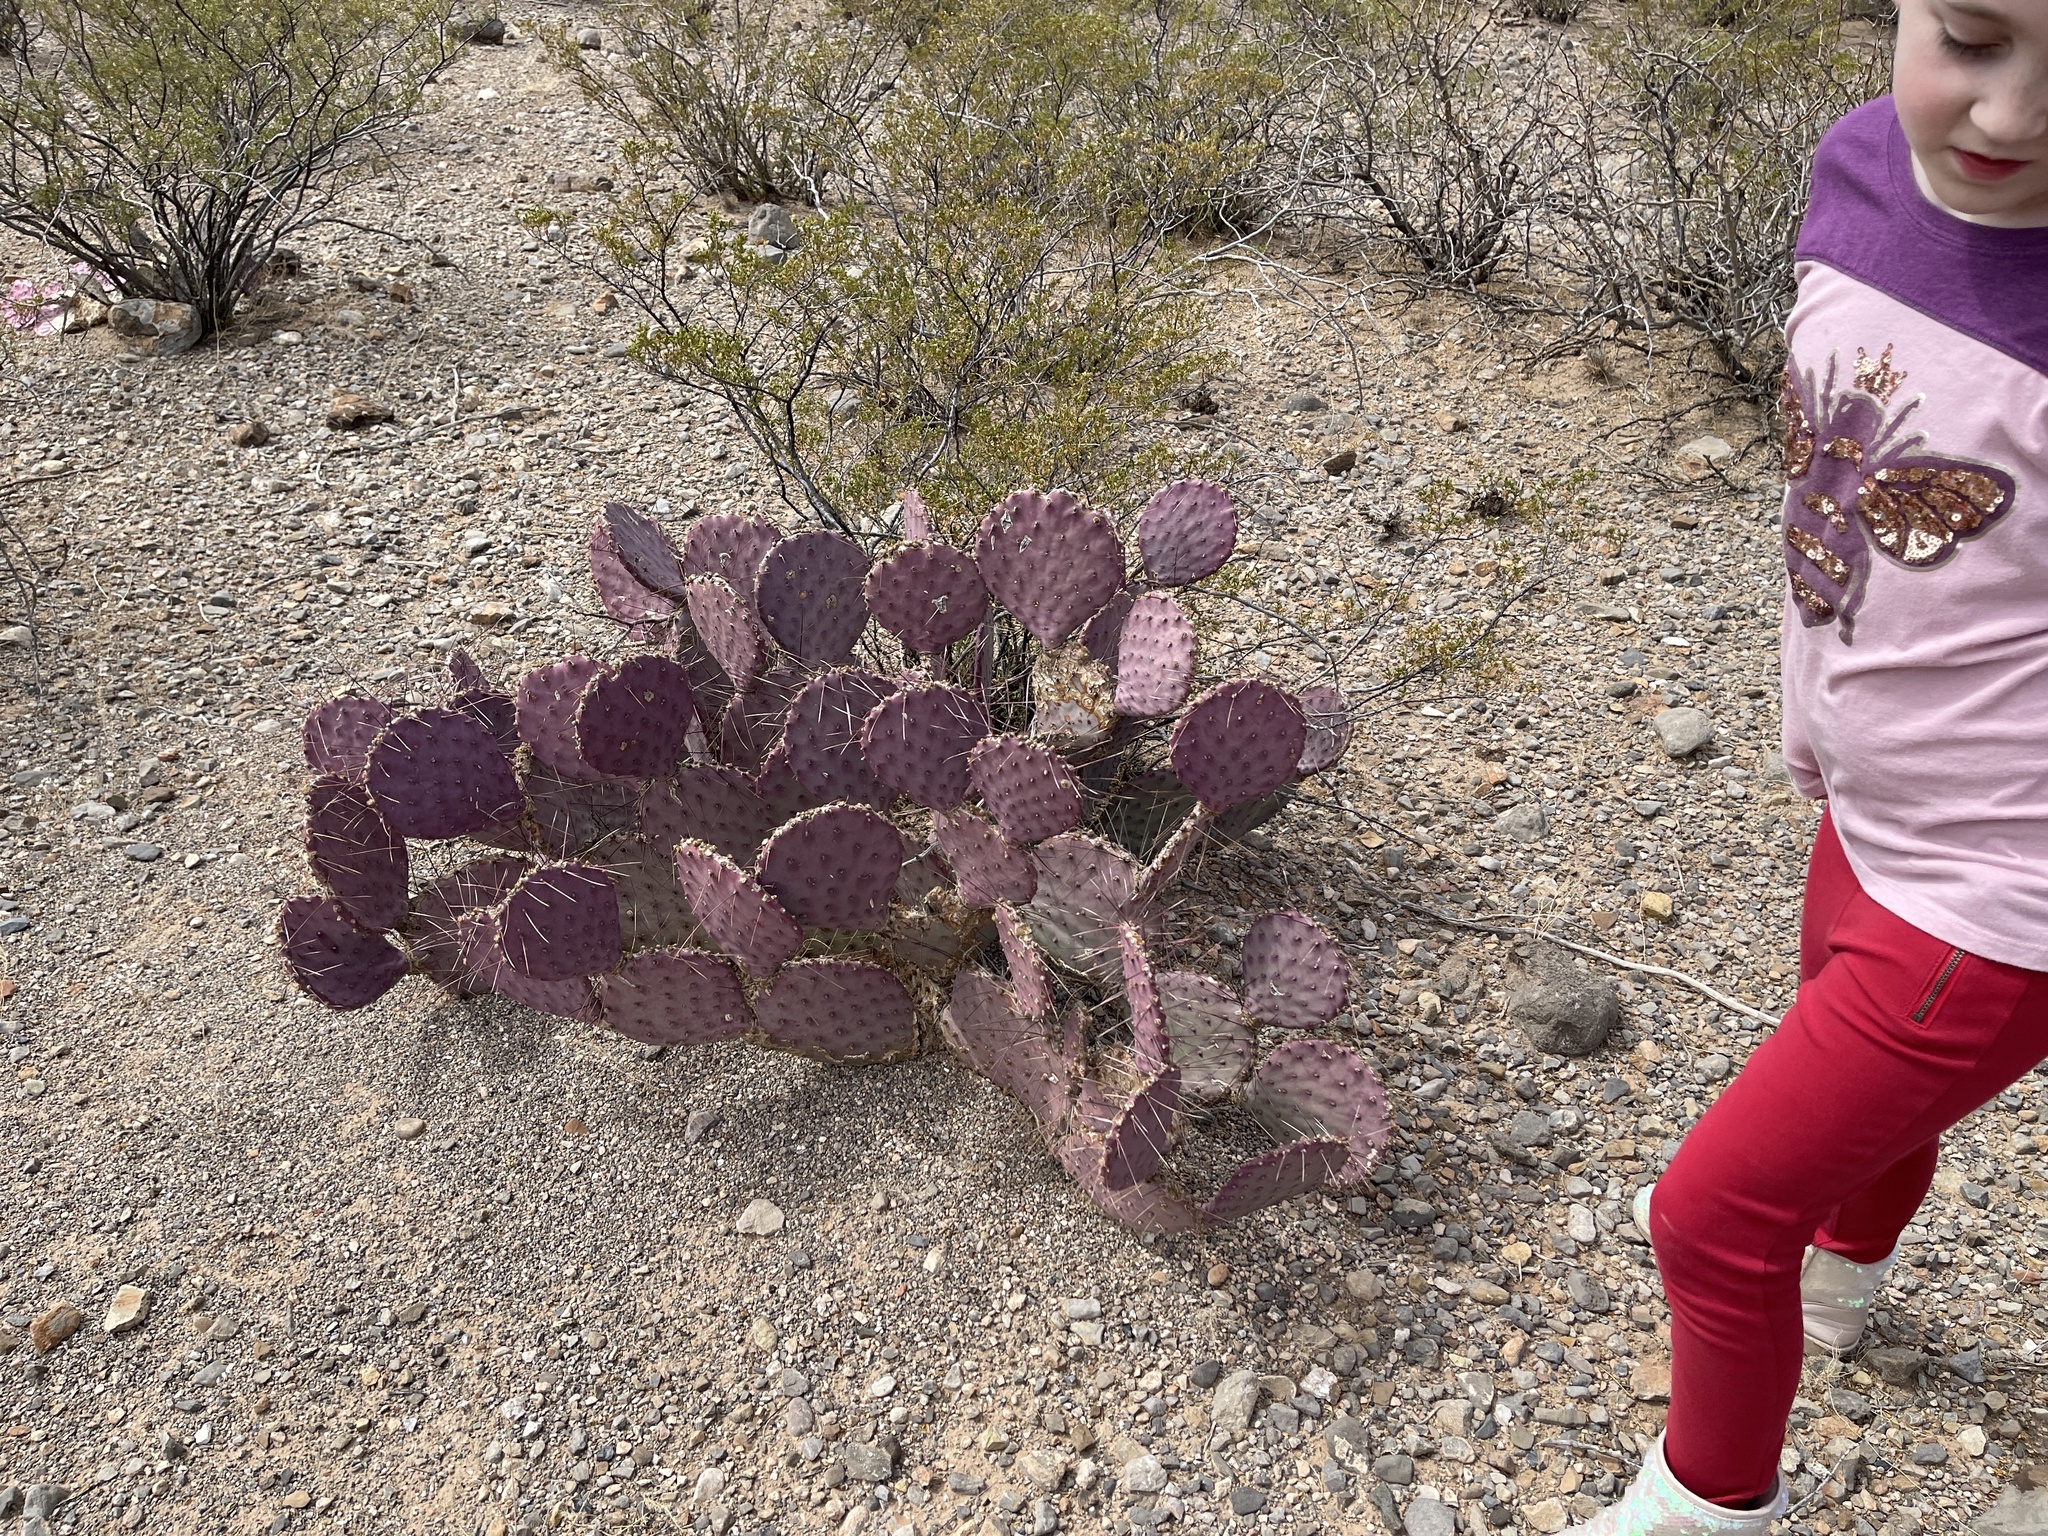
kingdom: Plantae
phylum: Tracheophyta
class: Magnoliopsida
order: Caryophyllales
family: Cactaceae
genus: Opuntia
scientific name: Opuntia macrocentra
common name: Purple prickly-pear
